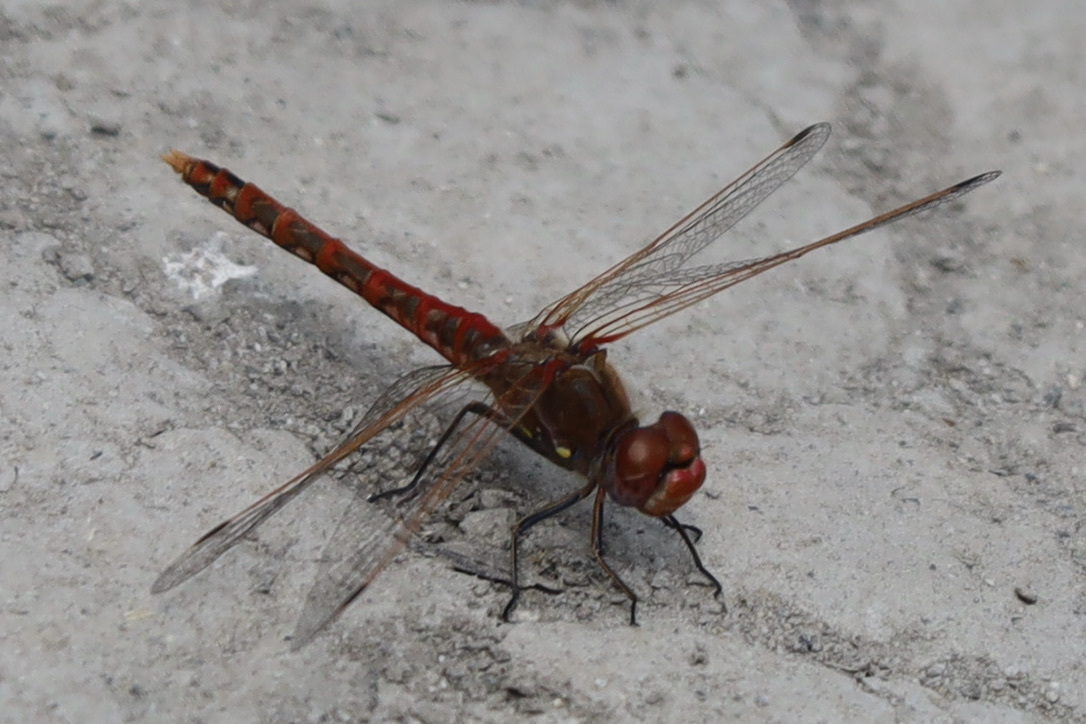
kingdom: Animalia
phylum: Arthropoda
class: Insecta
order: Odonata
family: Libellulidae
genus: Sympetrum
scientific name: Sympetrum corruptum
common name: Variegated meadowhawk
